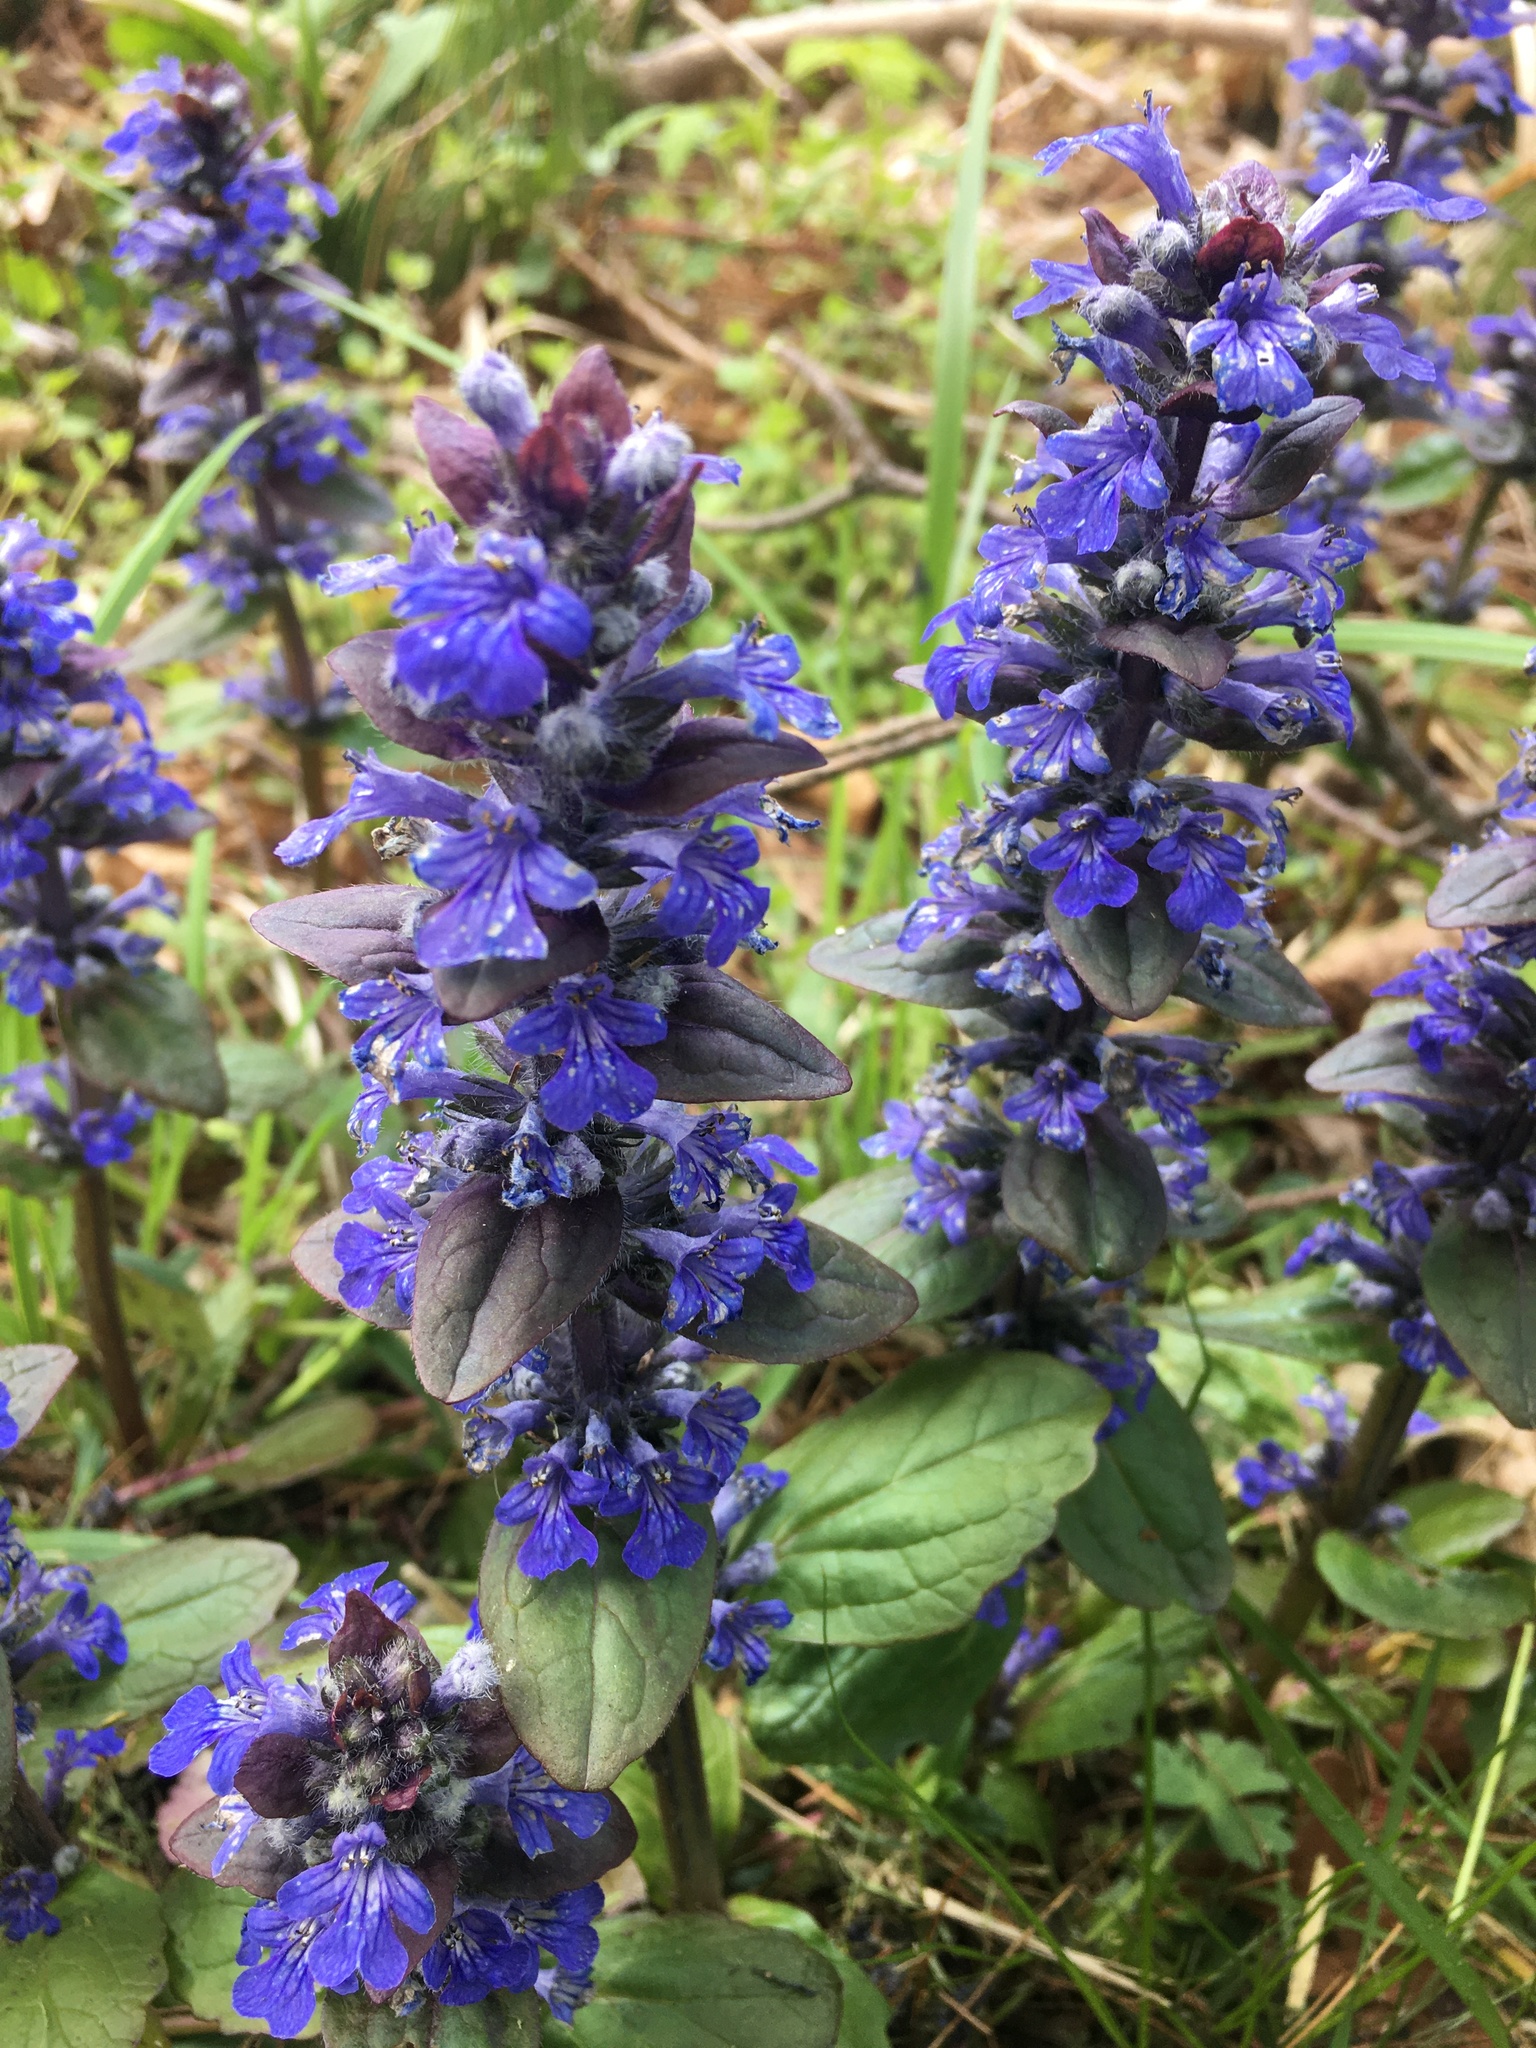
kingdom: Plantae
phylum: Tracheophyta
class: Magnoliopsida
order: Lamiales
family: Lamiaceae
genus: Ajuga
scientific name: Ajuga reptans
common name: Bugle
